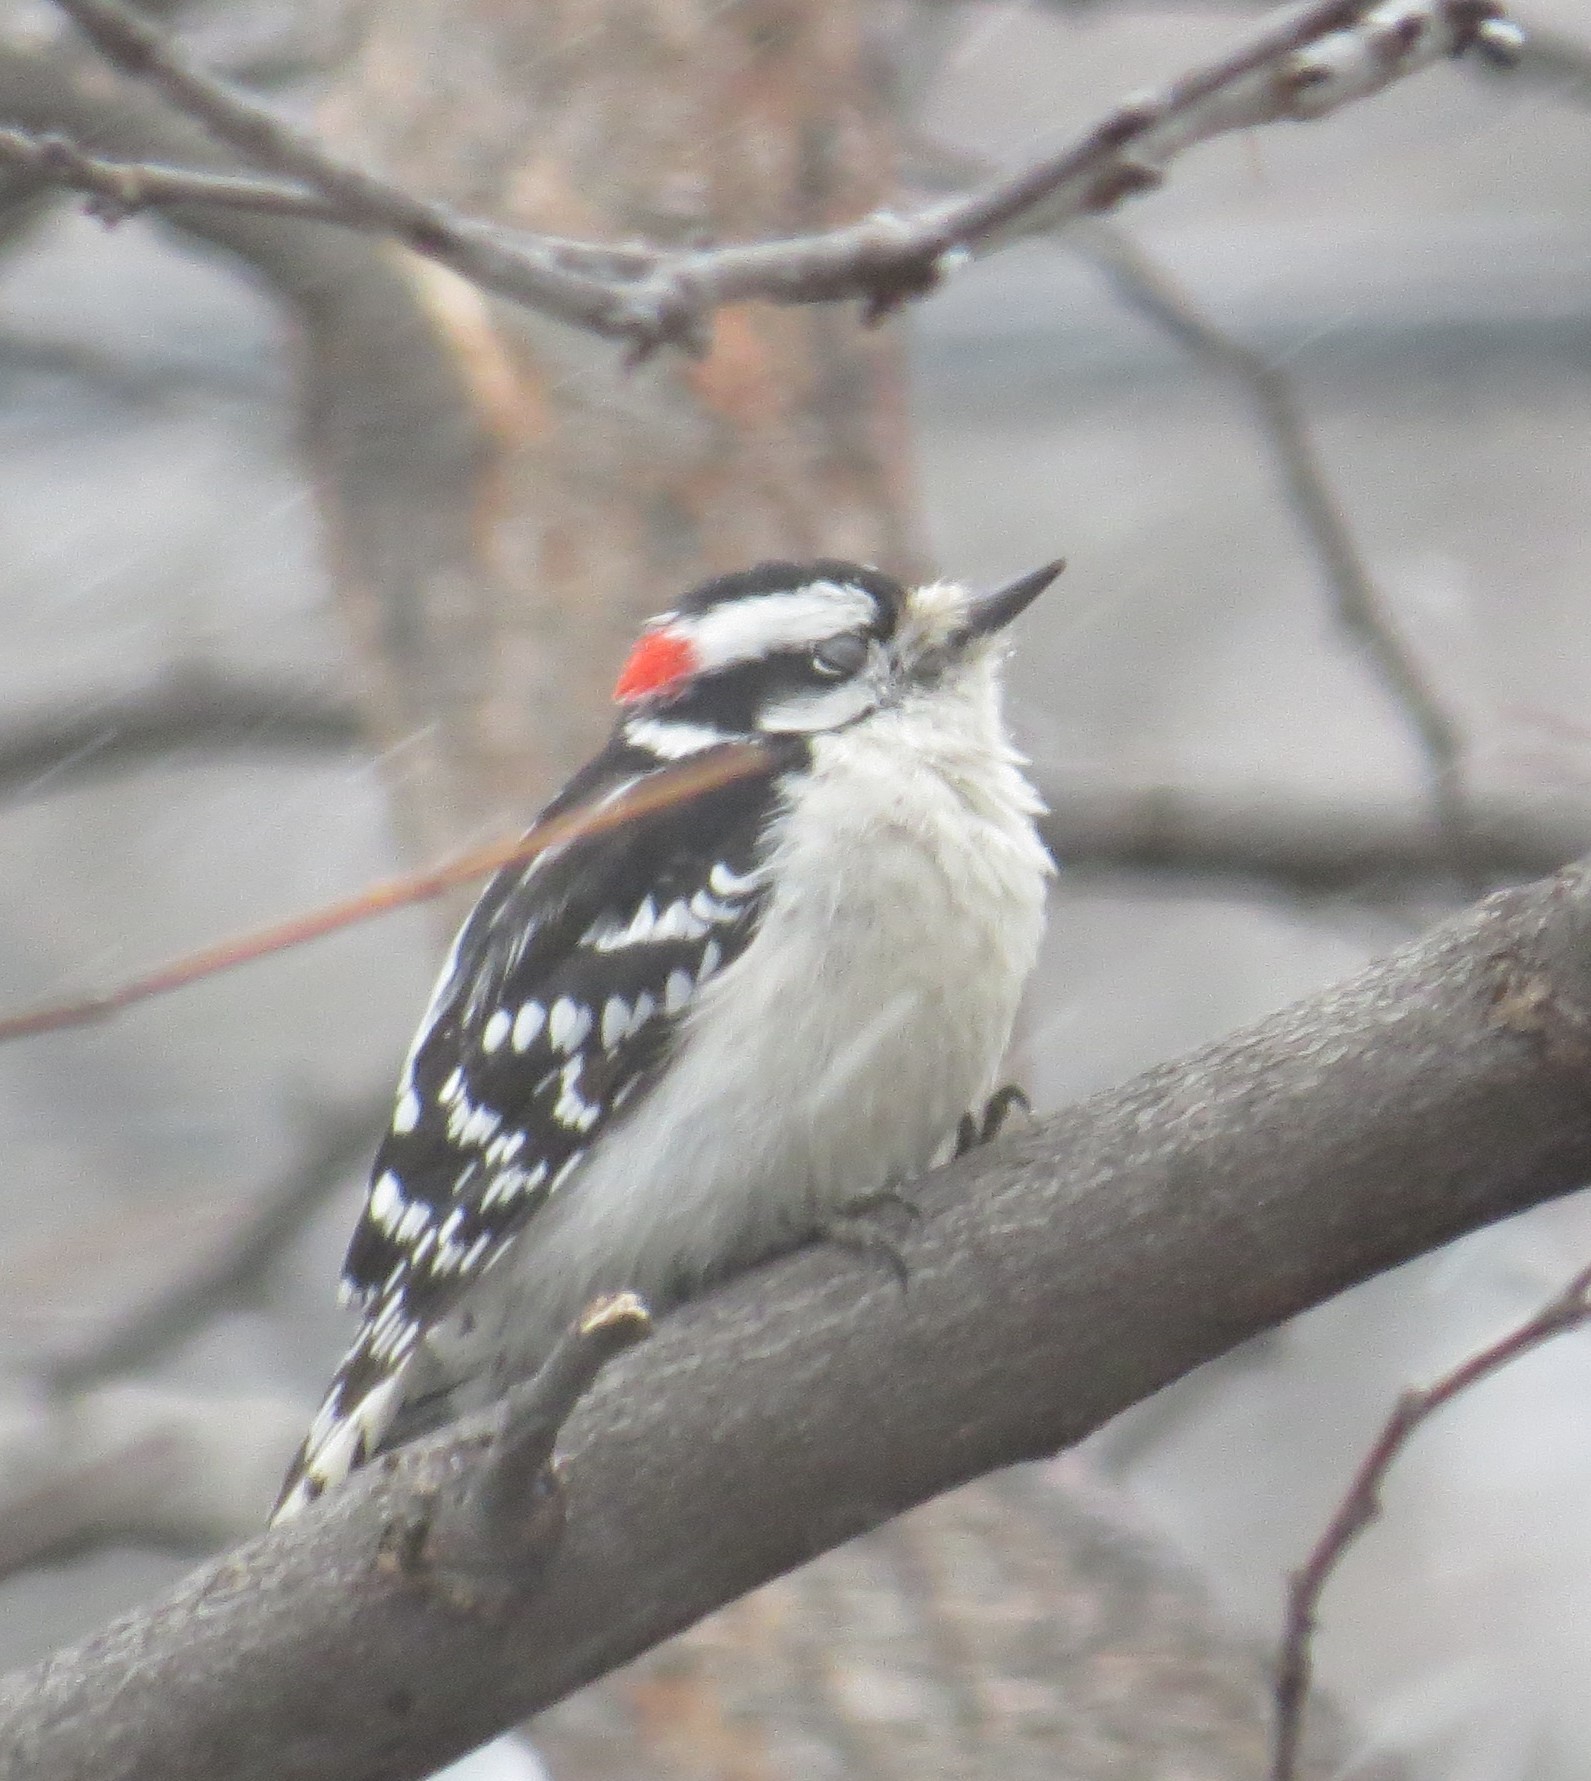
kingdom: Animalia
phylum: Chordata
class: Aves
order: Piciformes
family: Picidae
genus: Dryobates
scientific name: Dryobates pubescens
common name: Downy woodpecker
